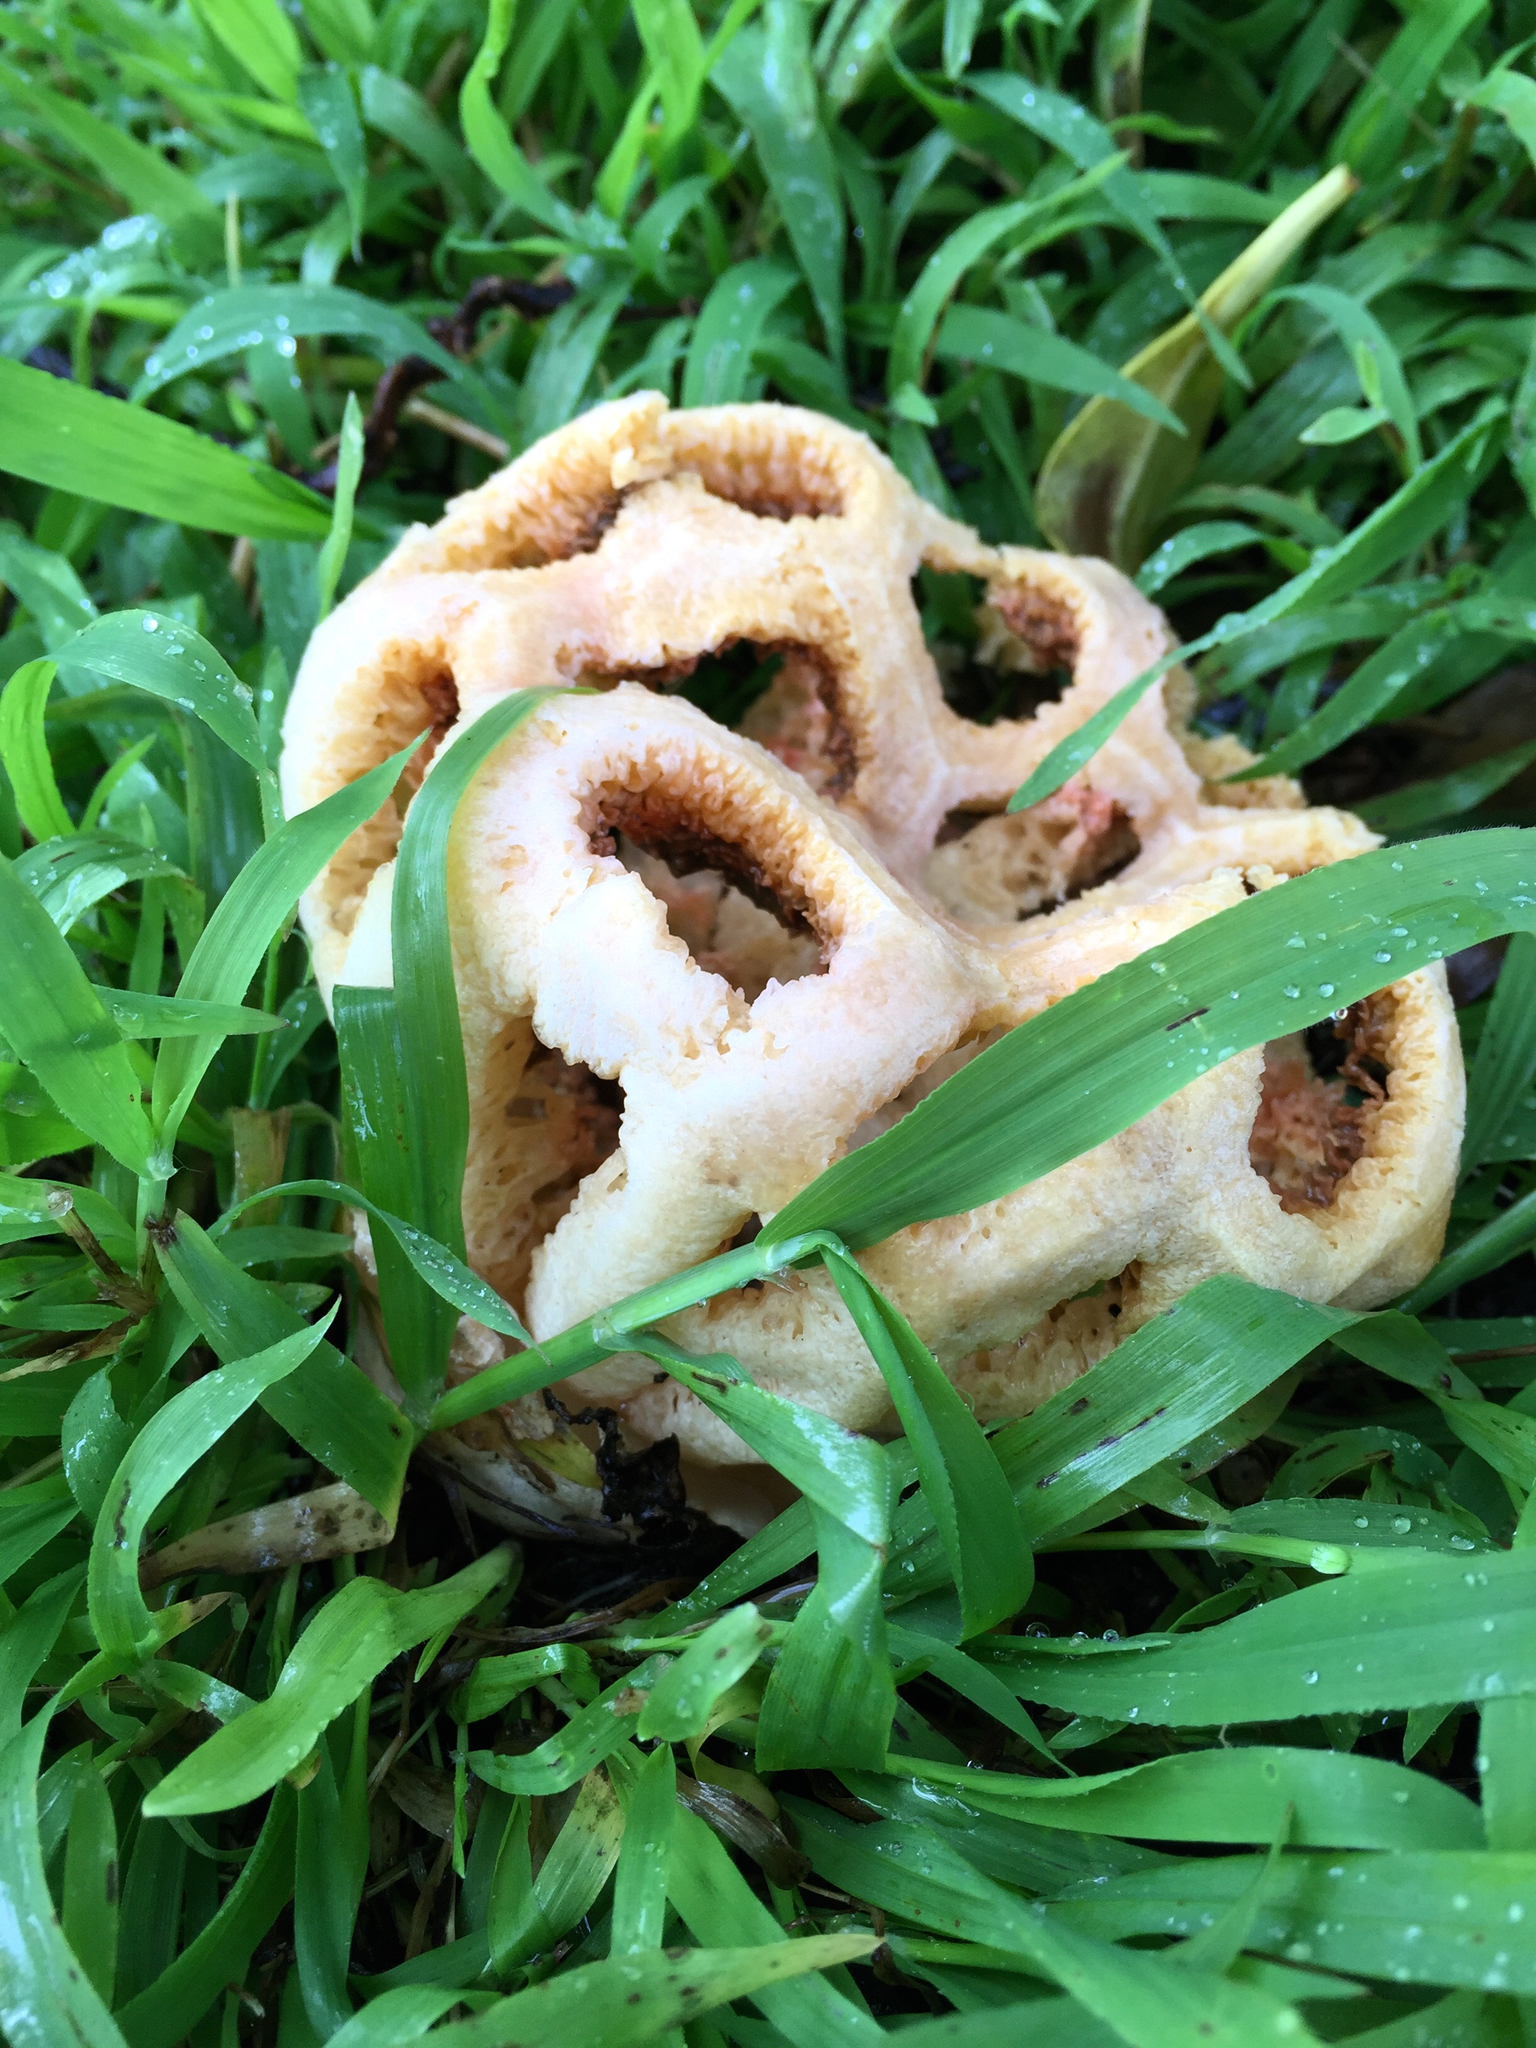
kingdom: Fungi
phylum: Basidiomycota
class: Agaricomycetes
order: Phallales
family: Phallaceae
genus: Clathrus
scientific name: Clathrus ruber
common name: Red cage
